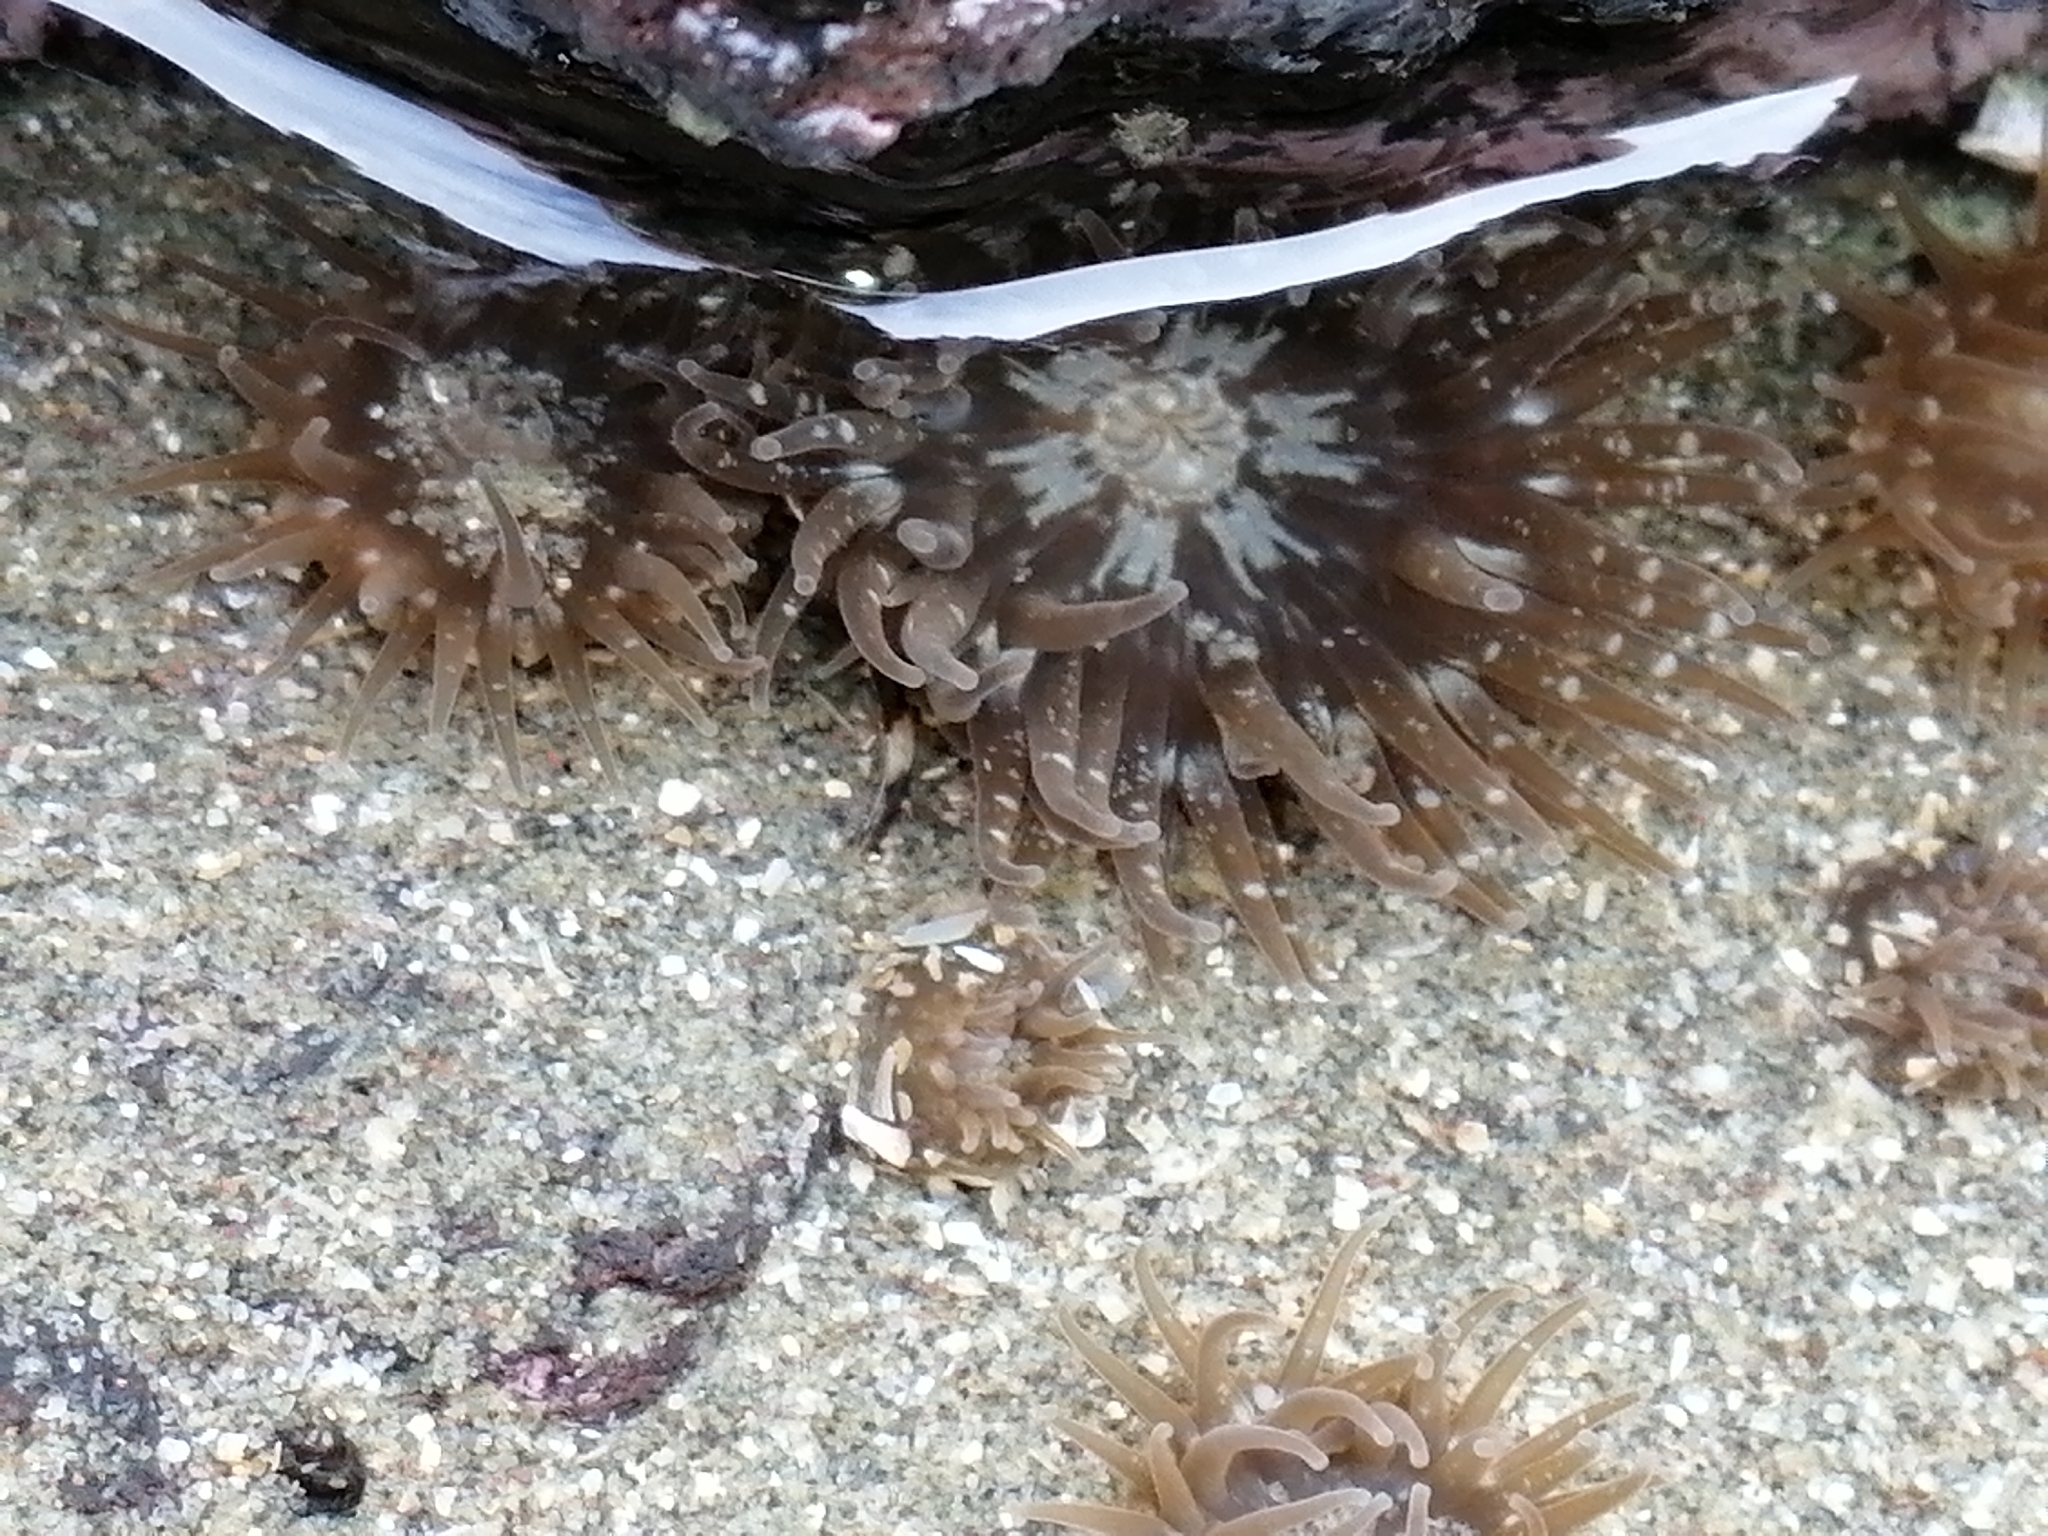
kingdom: Animalia
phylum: Cnidaria
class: Anthozoa
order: Actiniaria
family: Actiniidae
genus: Anthopleura
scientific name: Anthopleura hermaphroditica
